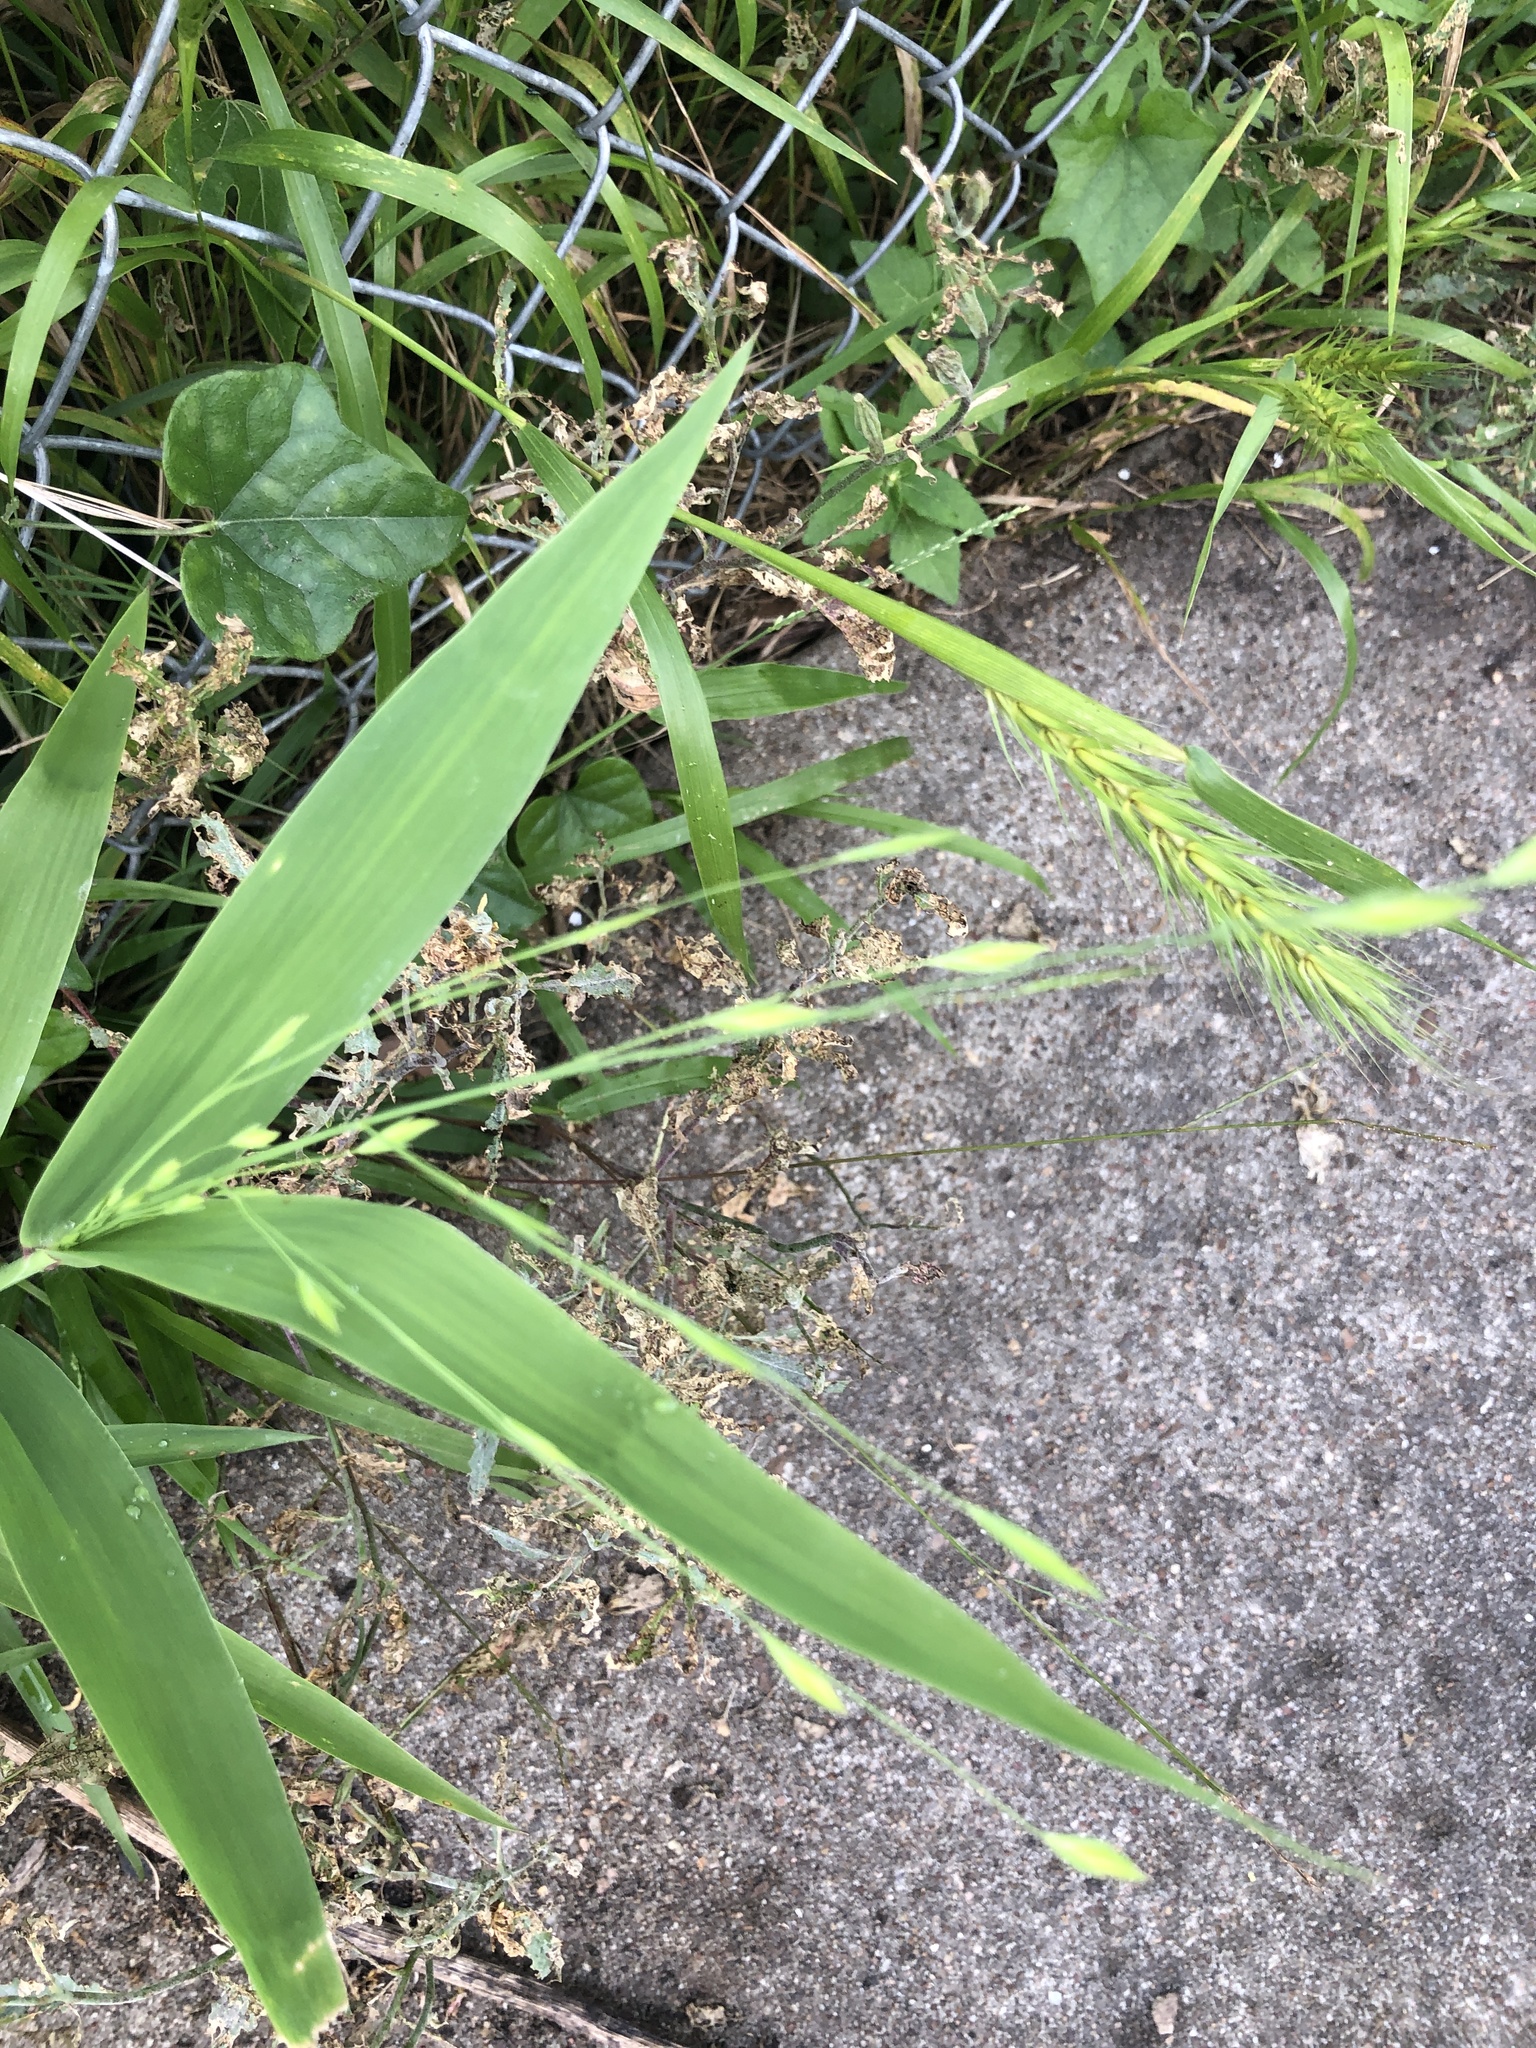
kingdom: Plantae
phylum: Tracheophyta
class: Liliopsida
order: Poales
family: Poaceae
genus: Chasmanthium
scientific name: Chasmanthium latifolium
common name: Broad-leaved chasmanthium
